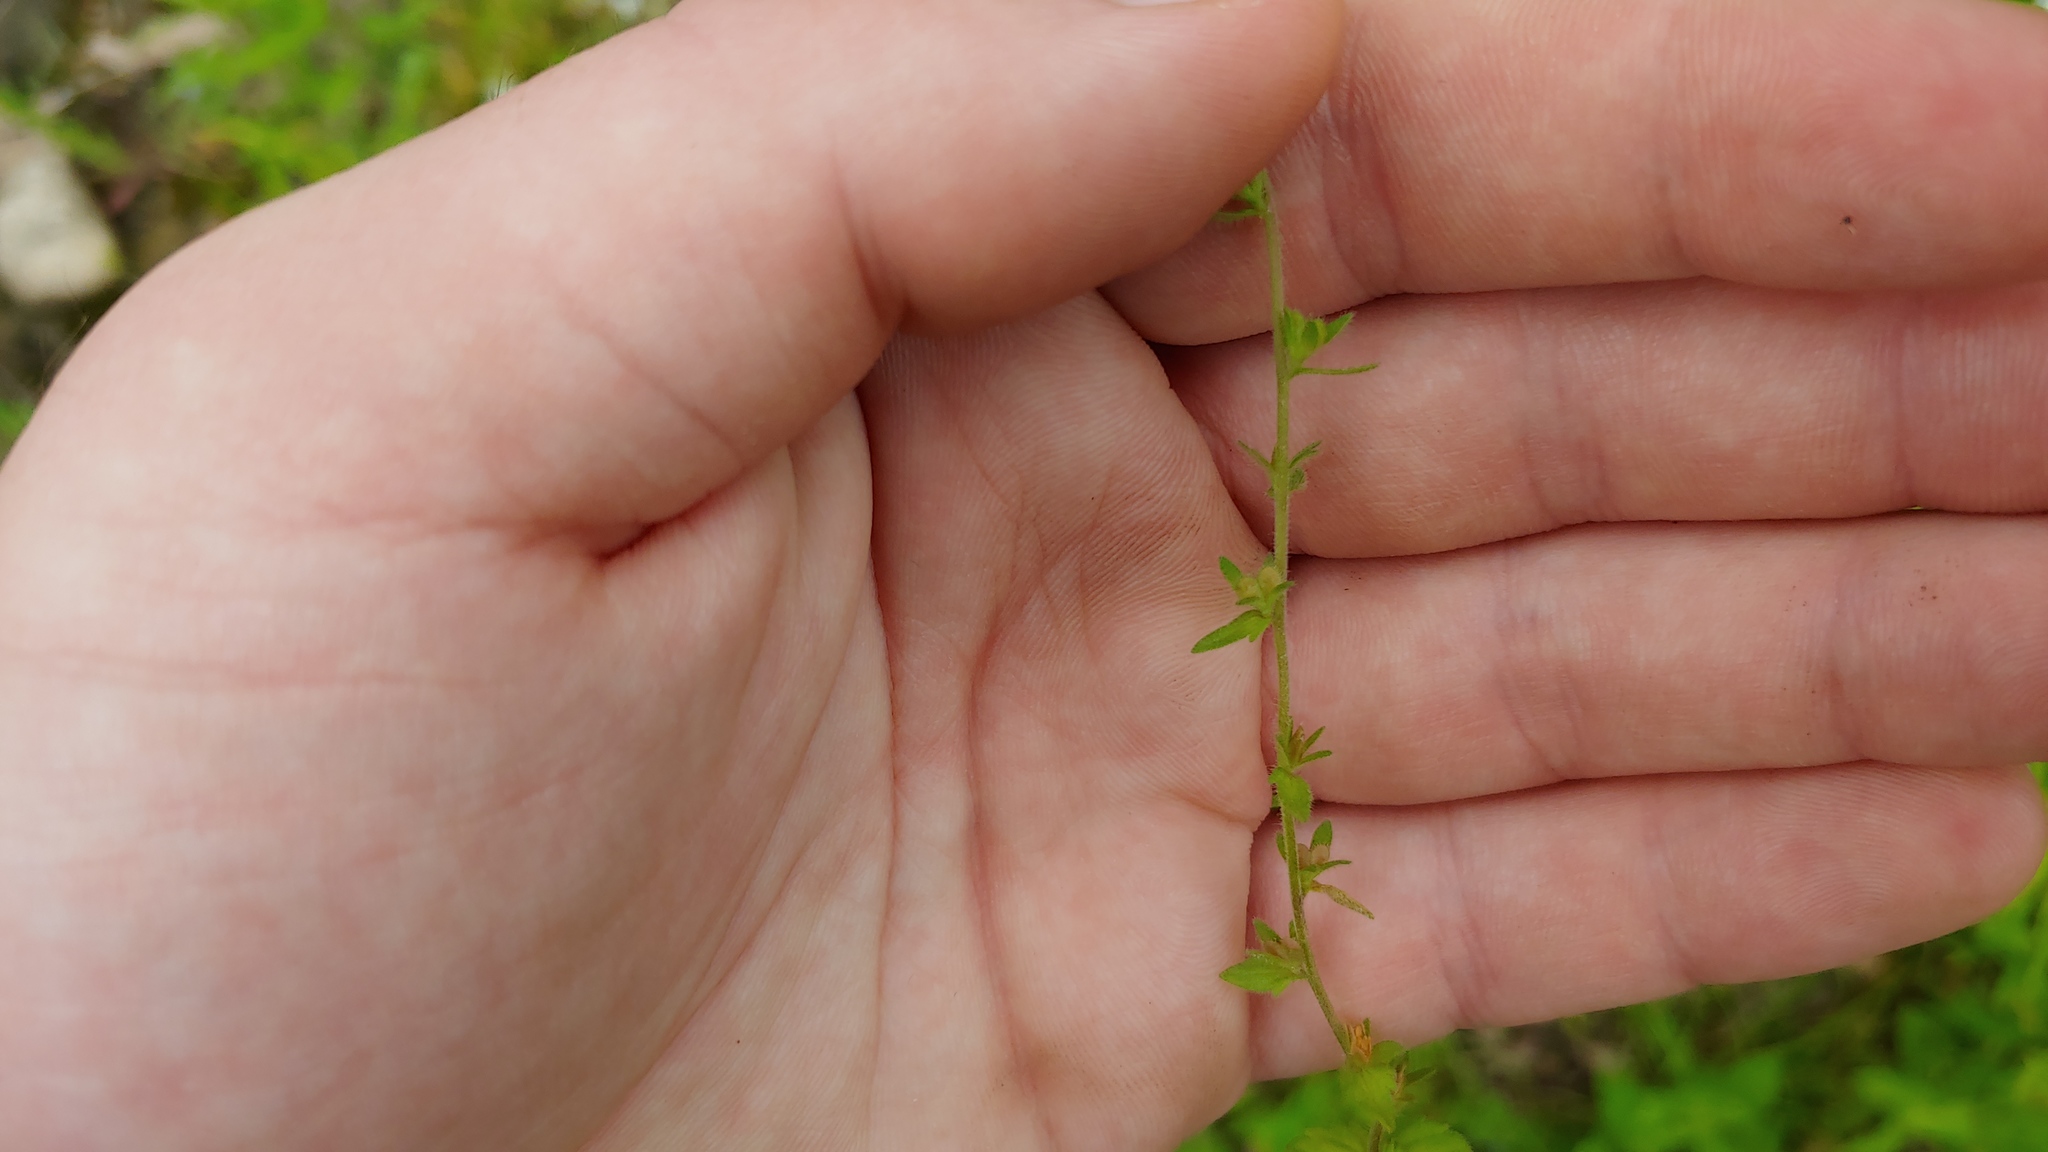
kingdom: Plantae
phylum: Tracheophyta
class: Magnoliopsida
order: Lamiales
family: Plantaginaceae
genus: Veronica
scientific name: Veronica arvensis
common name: Corn speedwell
